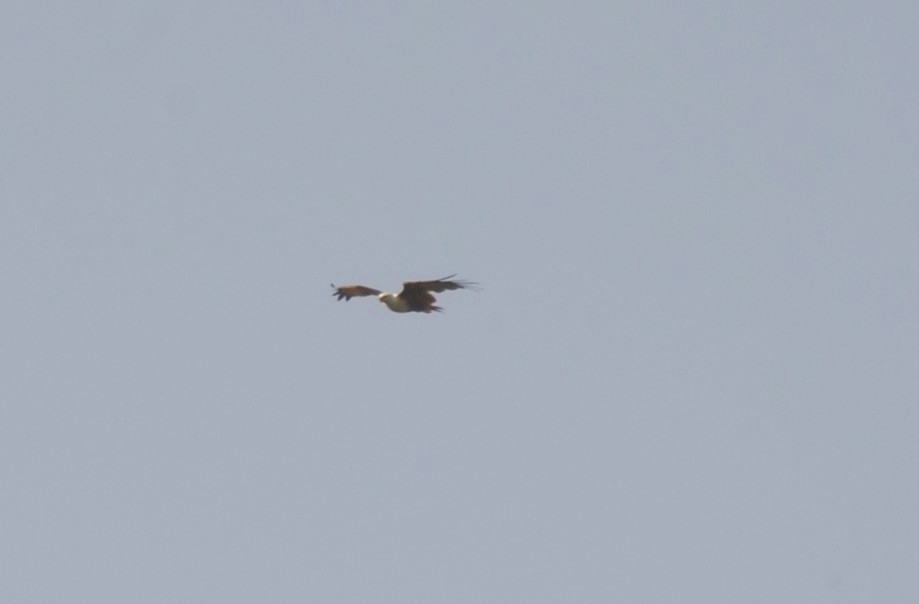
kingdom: Animalia
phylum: Chordata
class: Aves
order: Accipitriformes
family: Accipitridae
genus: Haliastur
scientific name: Haliastur indus
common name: Brahminy kite
